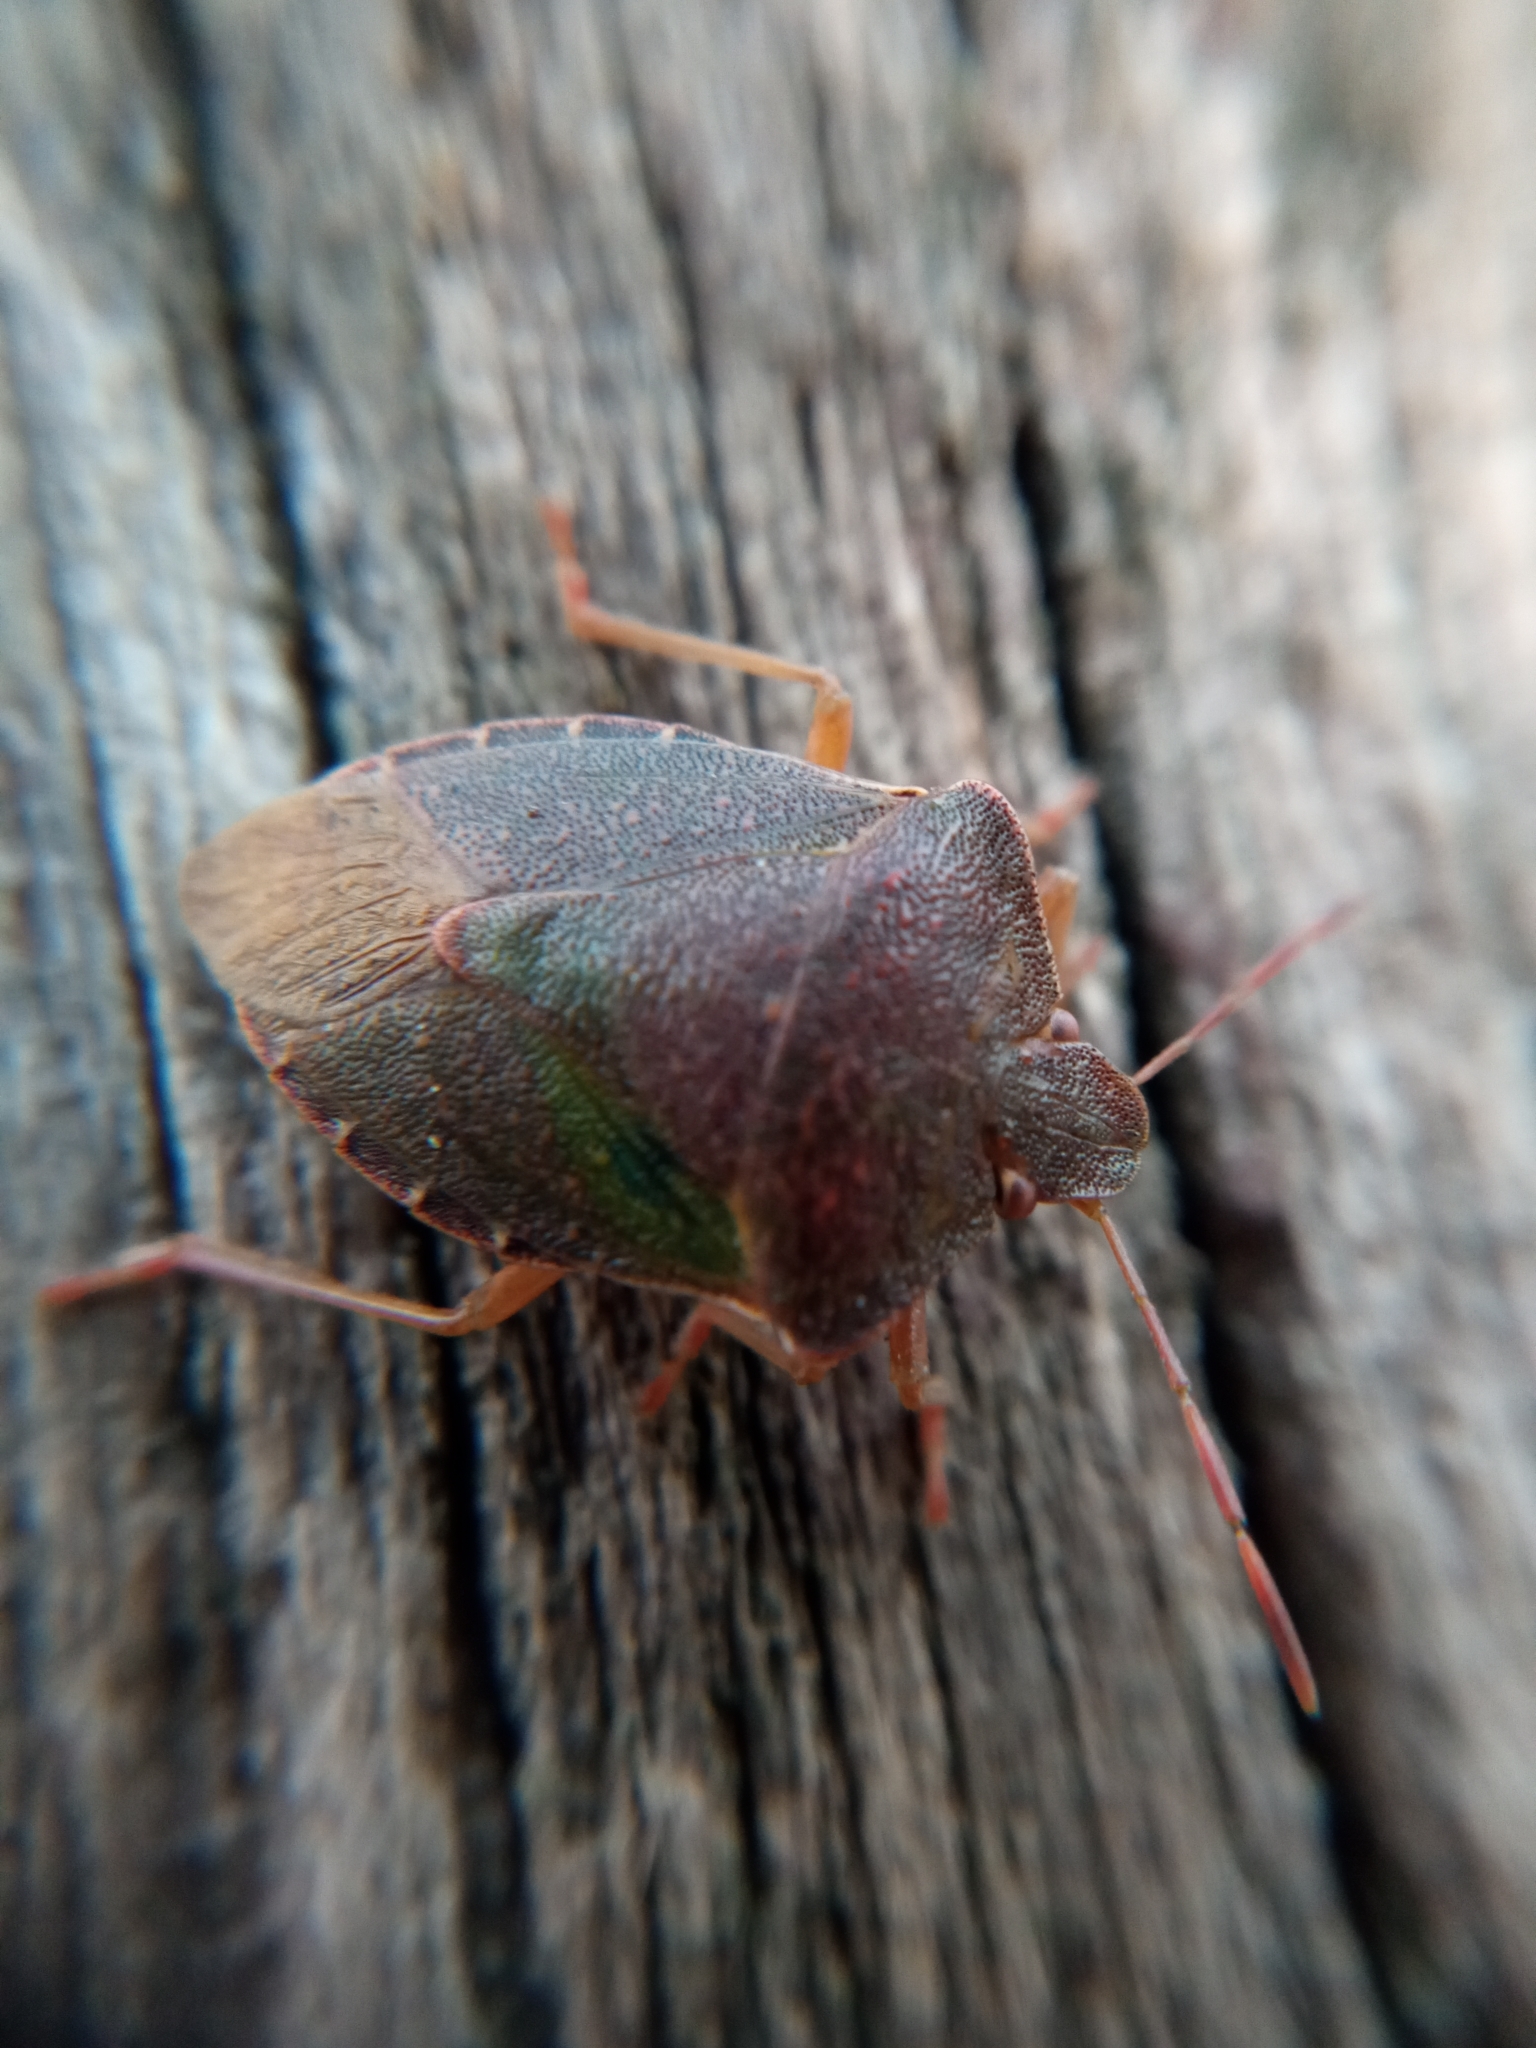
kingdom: Animalia
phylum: Arthropoda
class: Insecta
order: Hemiptera
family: Pentatomidae
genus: Palomena
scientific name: Palomena prasina
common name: Green shieldbug
